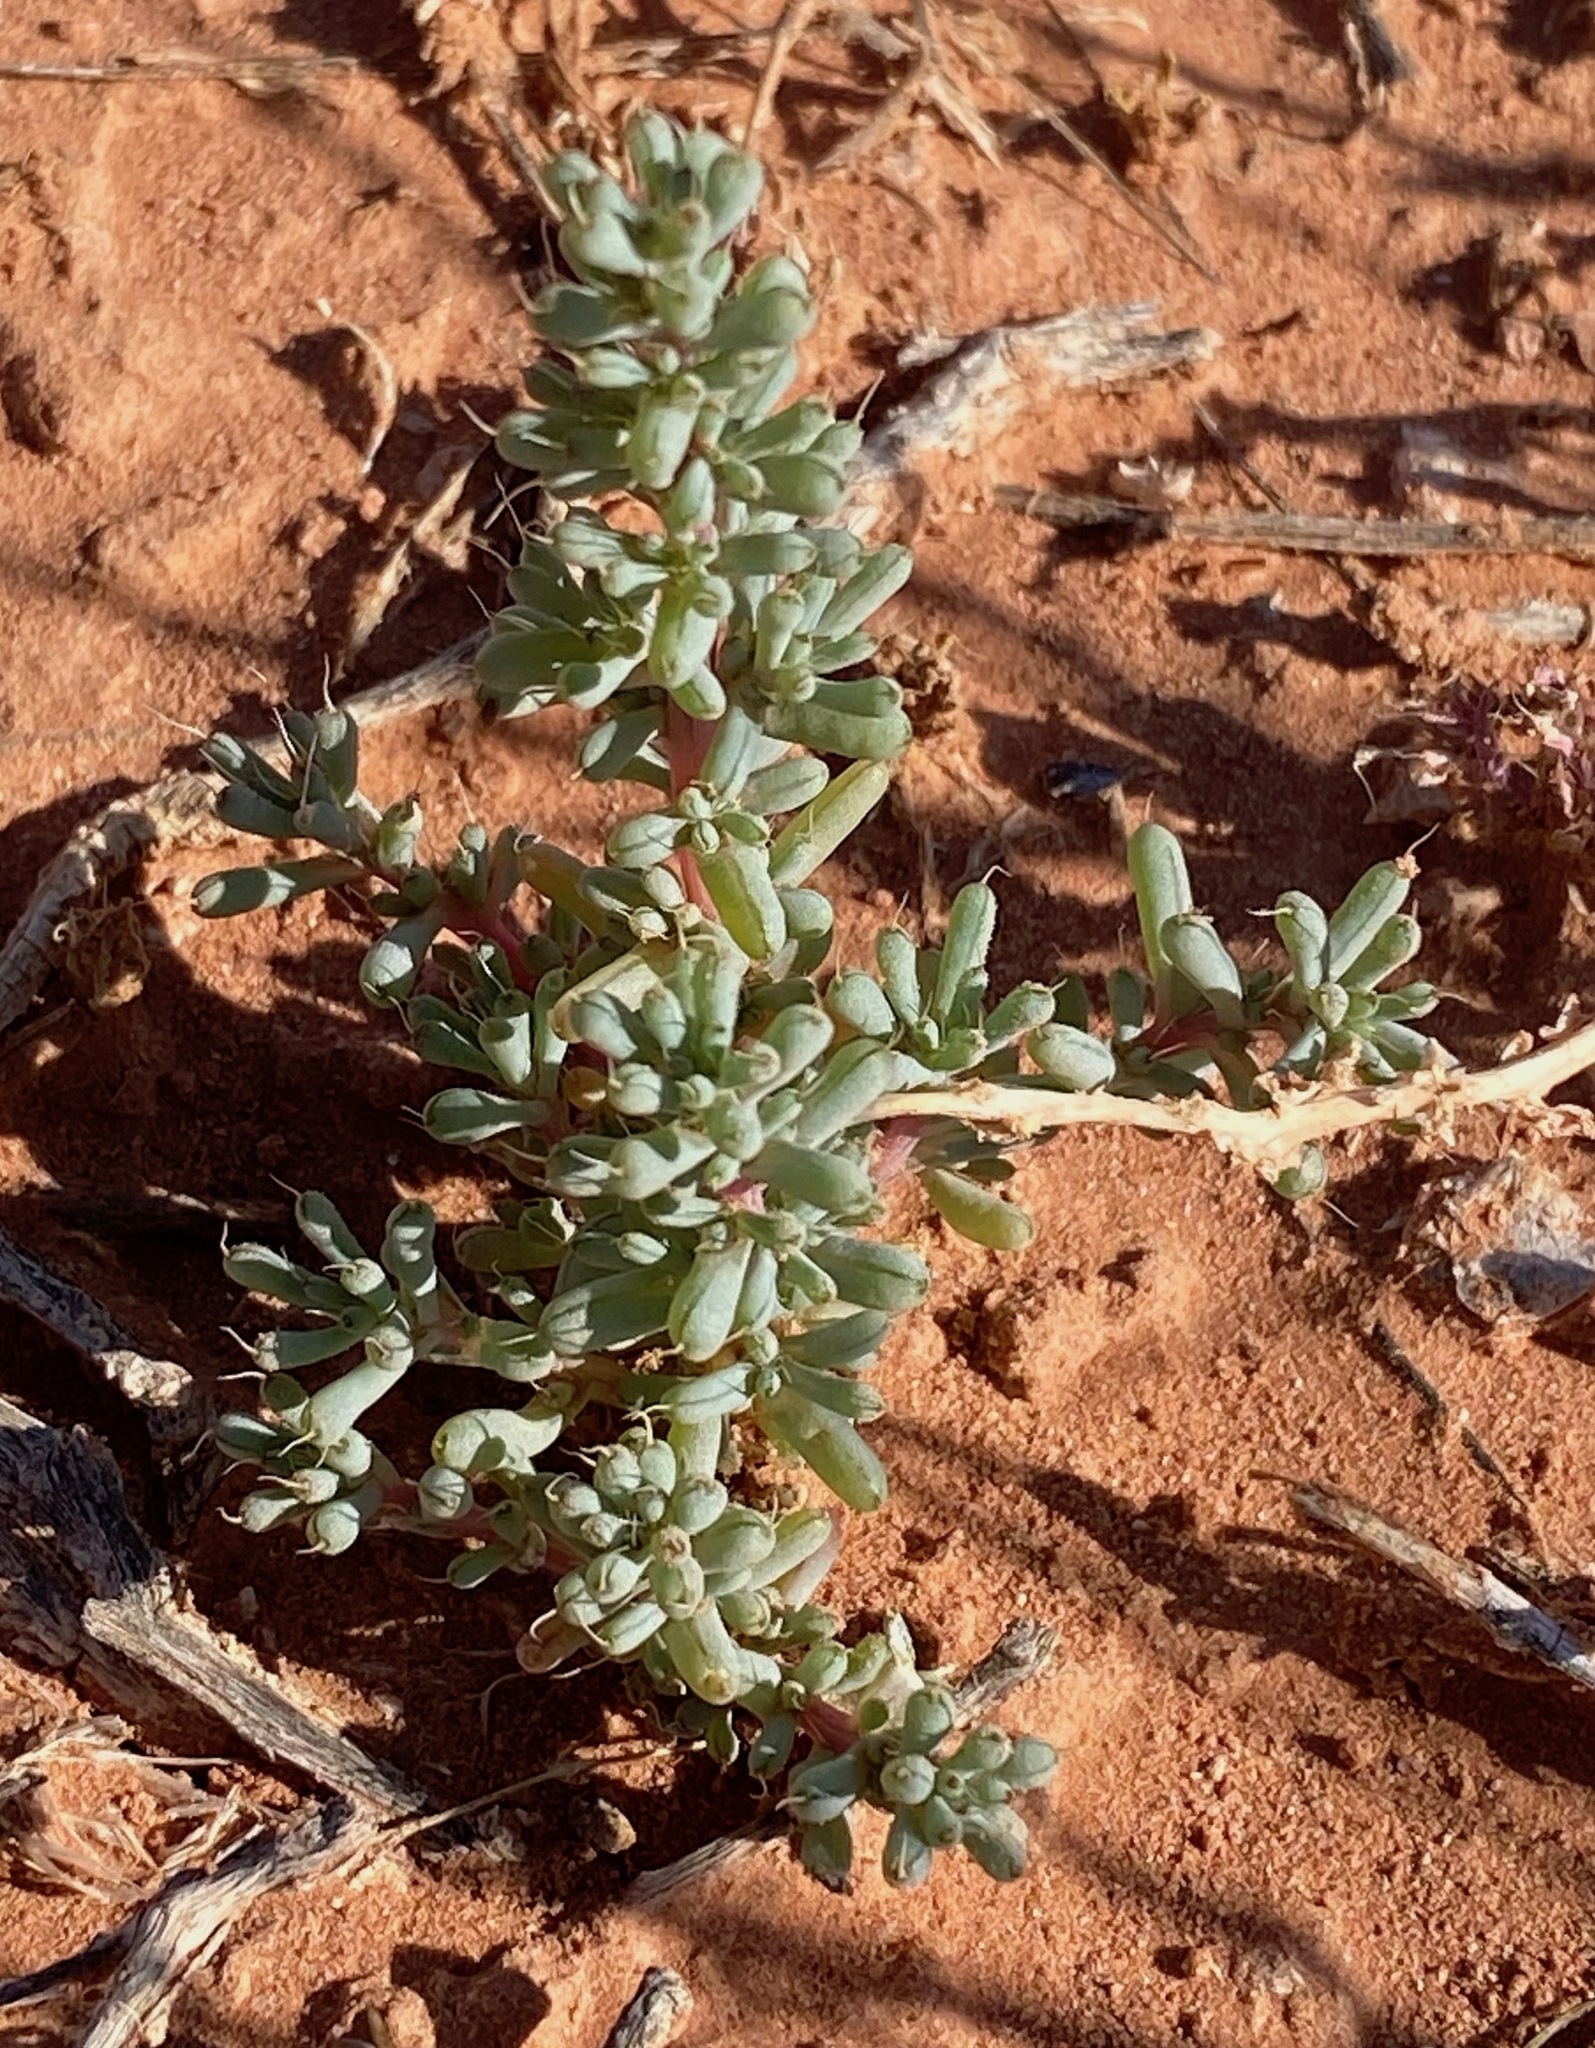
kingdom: Plantae
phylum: Tracheophyta
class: Magnoliopsida
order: Caryophyllales
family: Amaranthaceae
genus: Halogeton
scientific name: Halogeton glomeratus
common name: Saltlover
